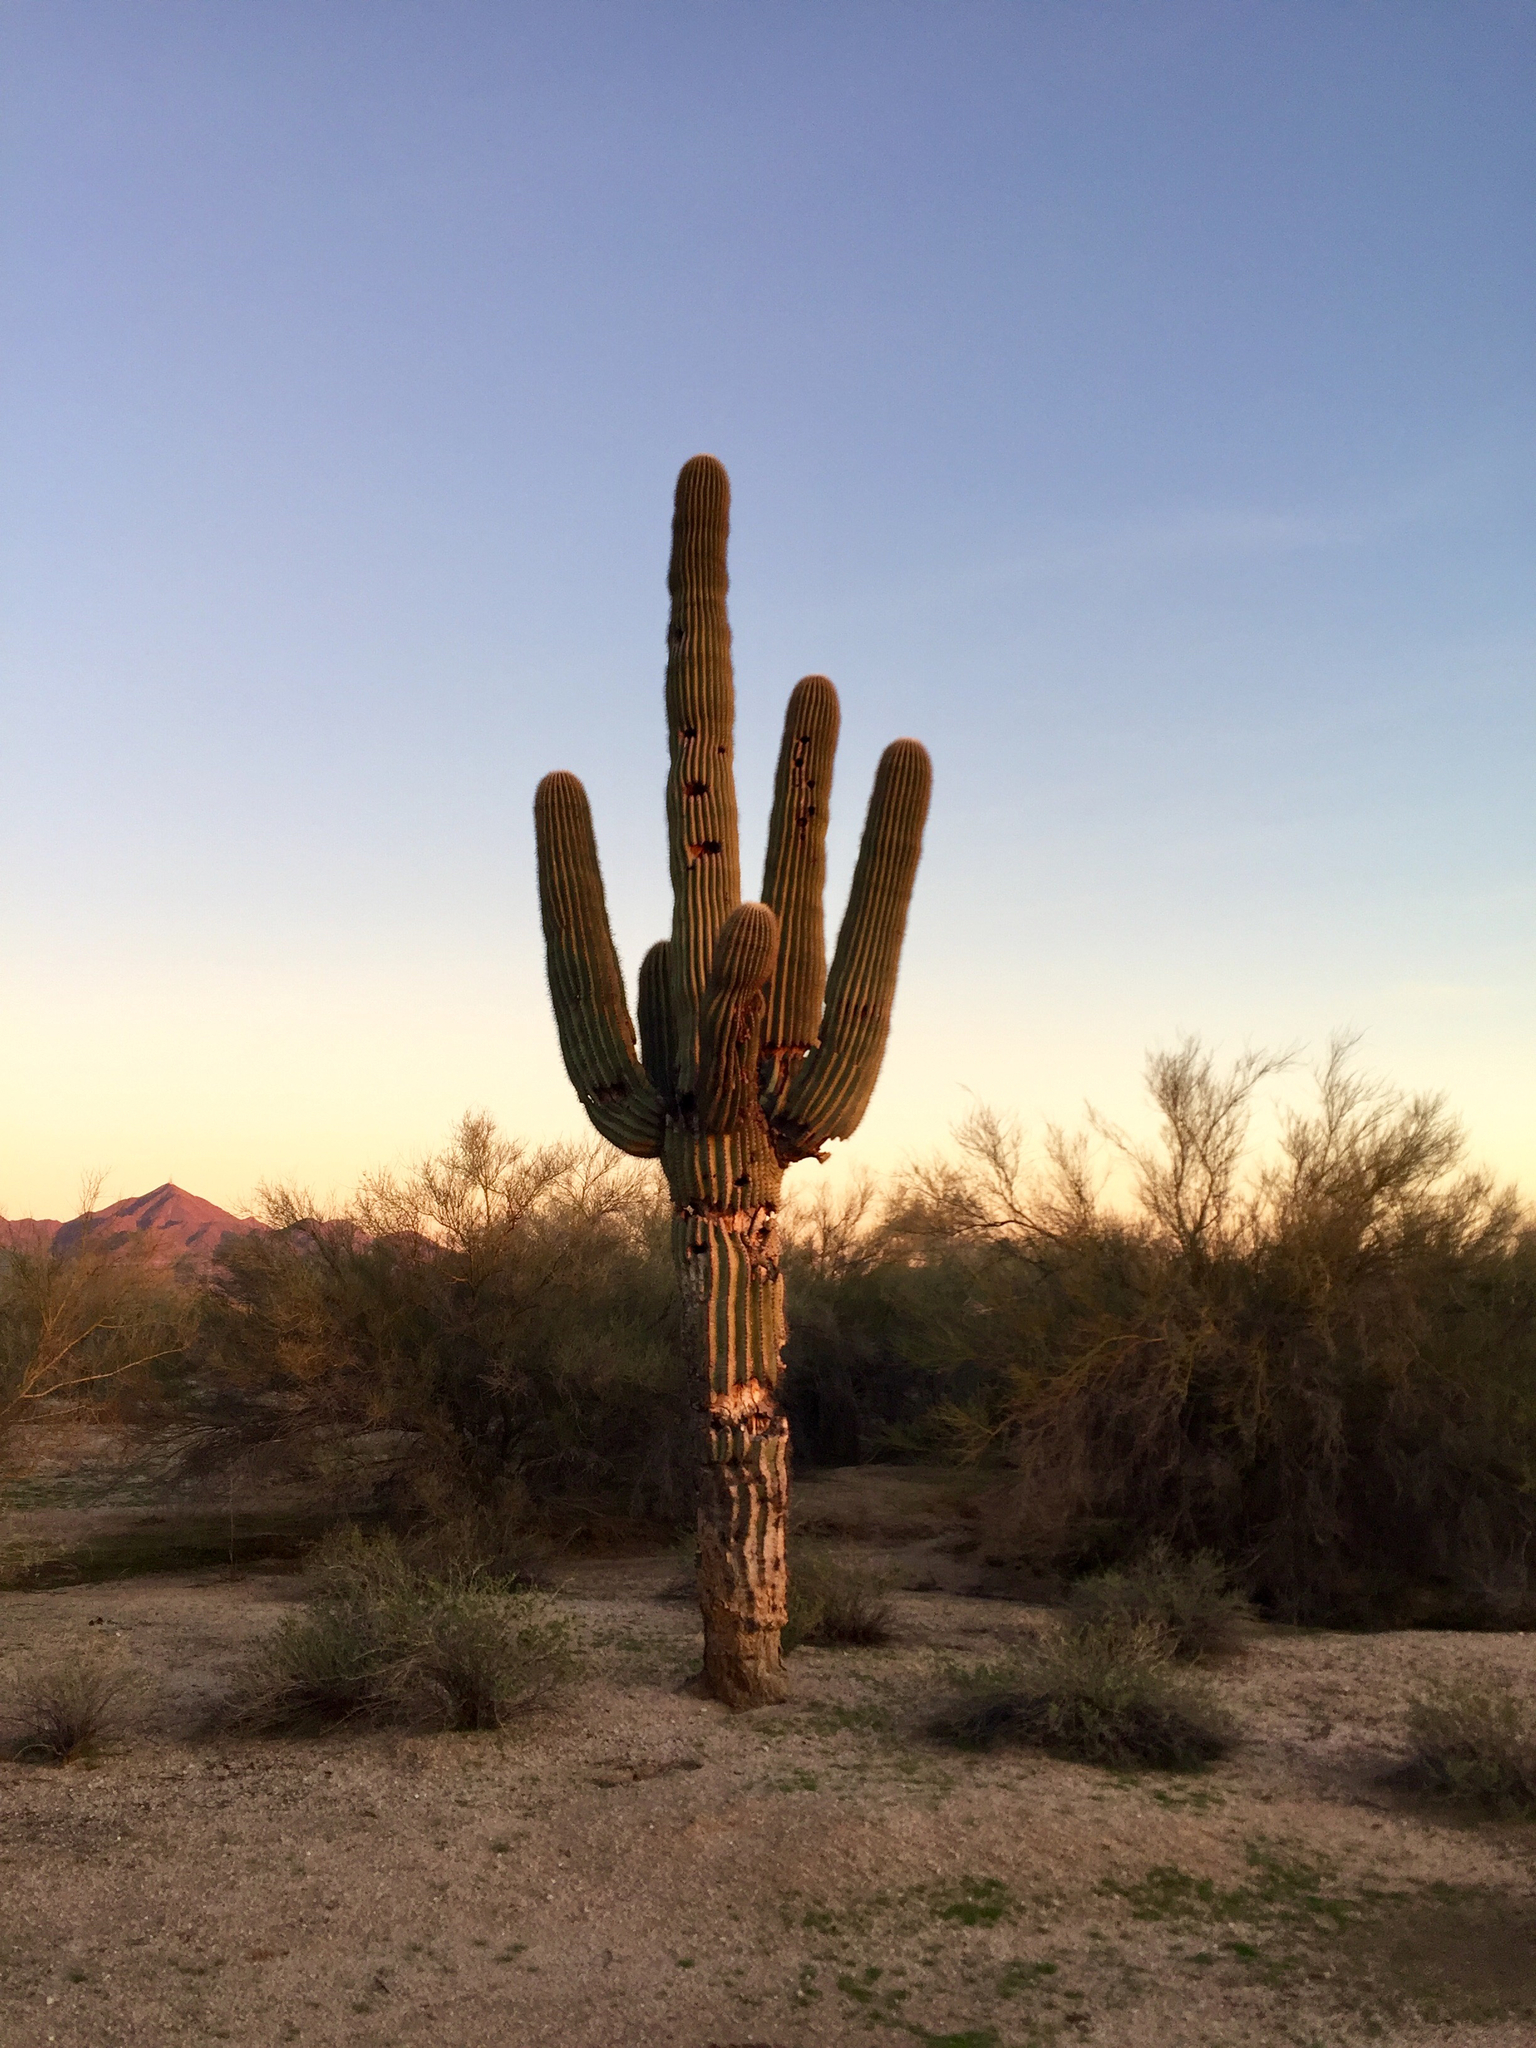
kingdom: Plantae
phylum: Tracheophyta
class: Magnoliopsida
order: Caryophyllales
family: Cactaceae
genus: Carnegiea
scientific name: Carnegiea gigantea
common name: Saguaro
